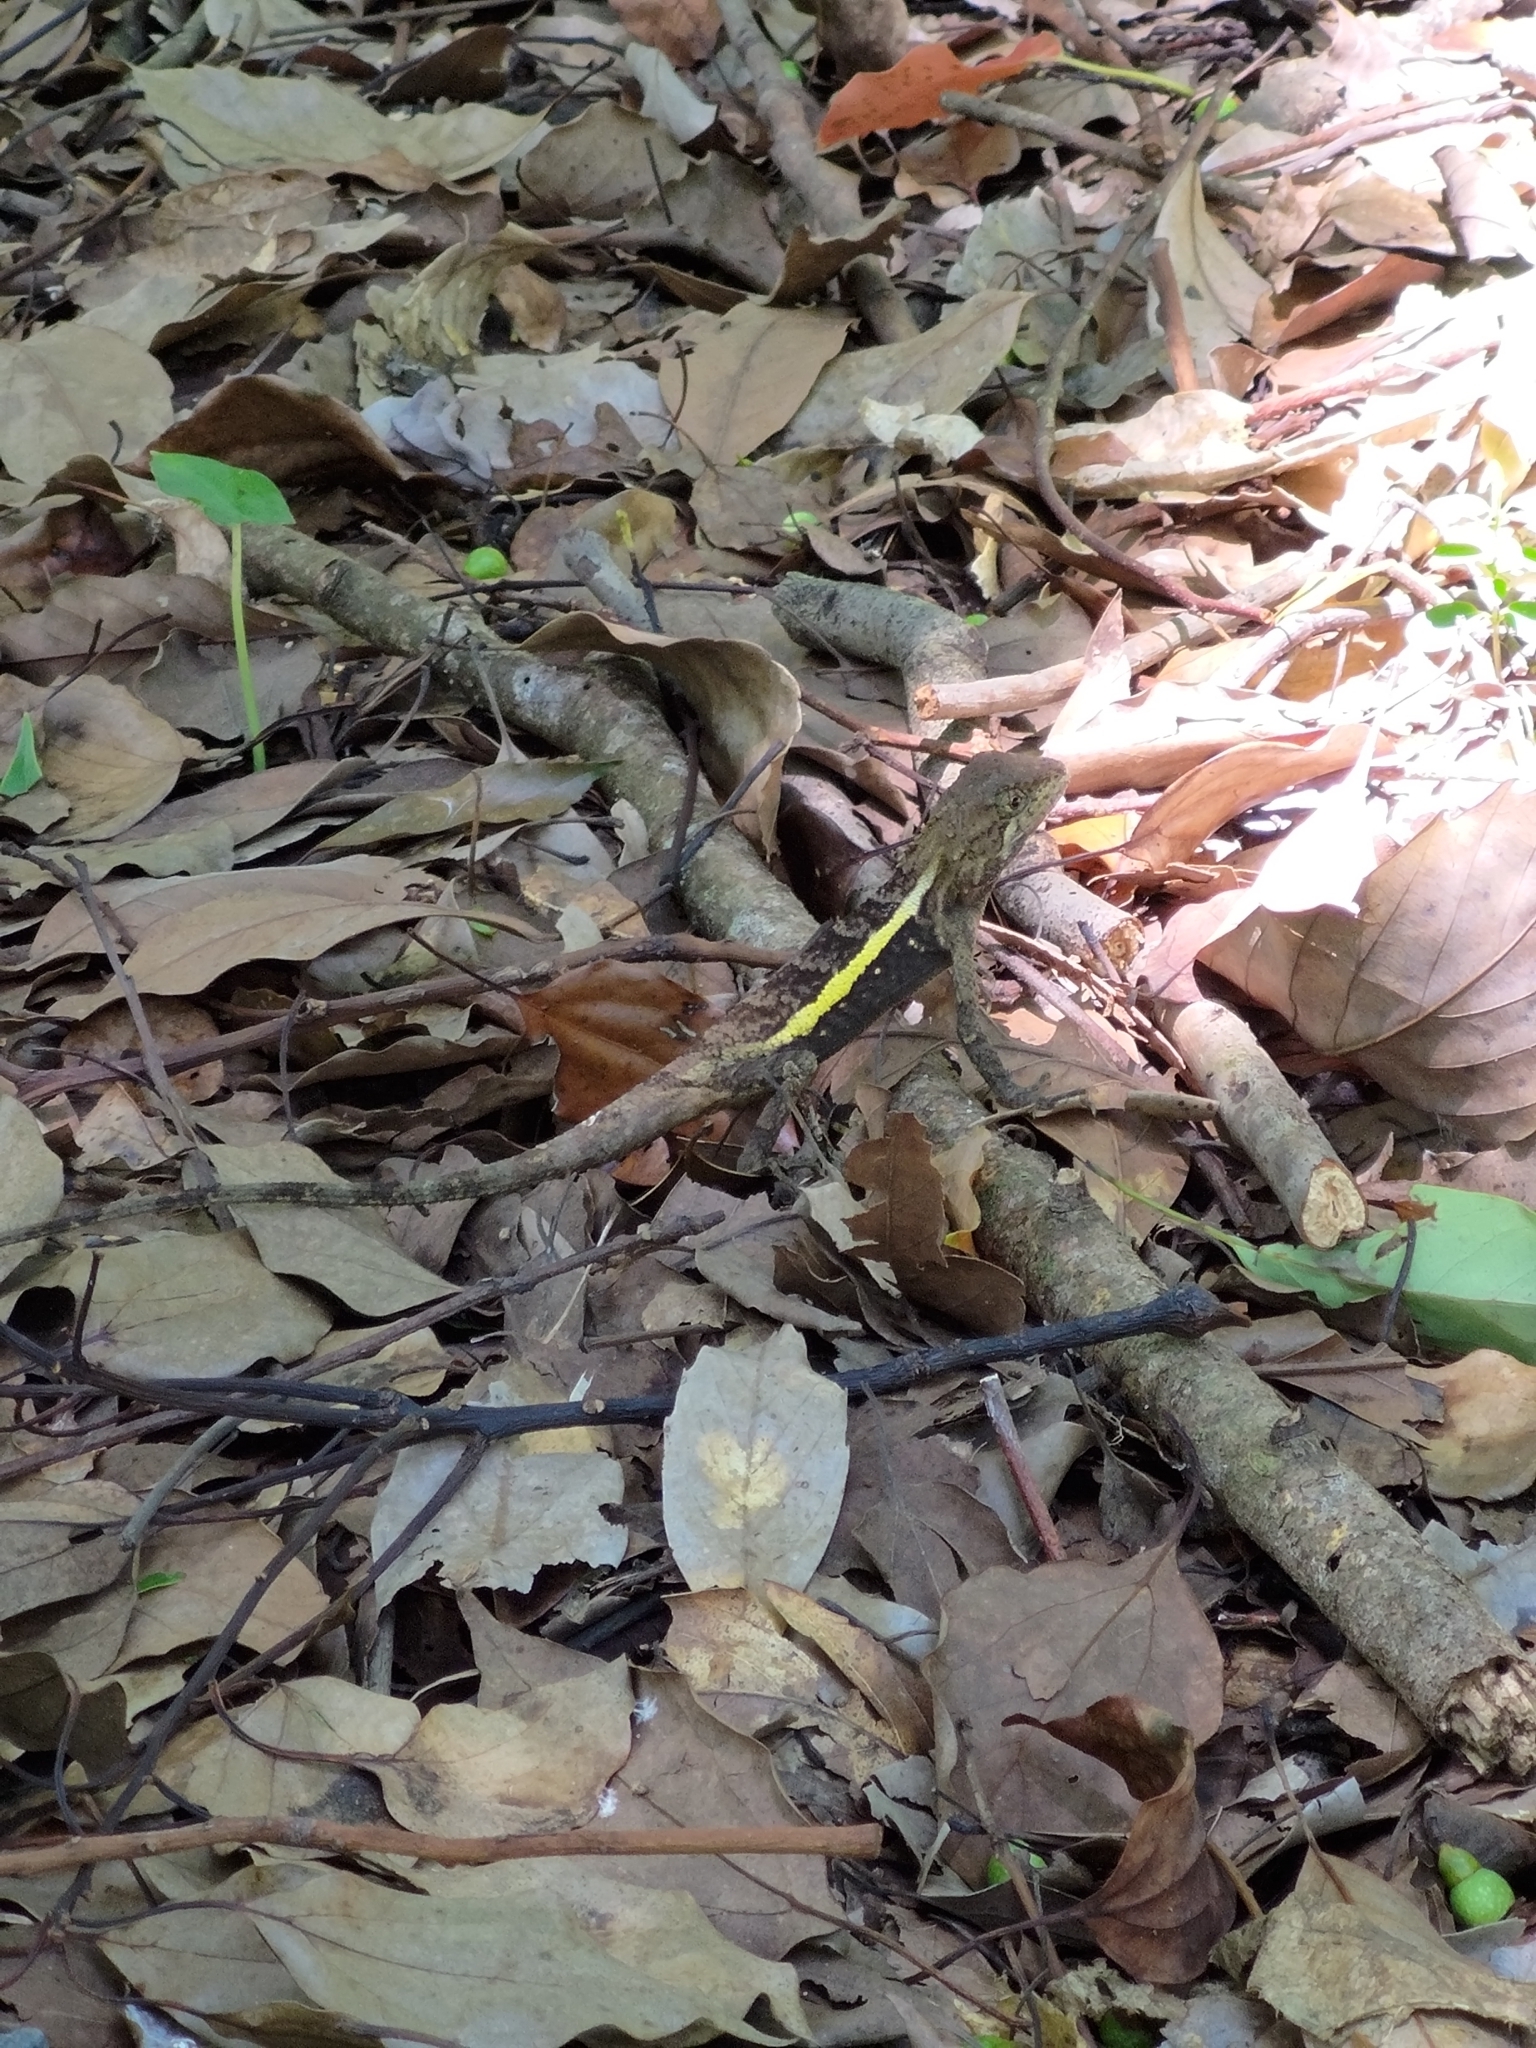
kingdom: Animalia
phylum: Chordata
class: Squamata
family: Agamidae
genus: Diploderma
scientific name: Diploderma swinhonis
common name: Taiwan japalure
